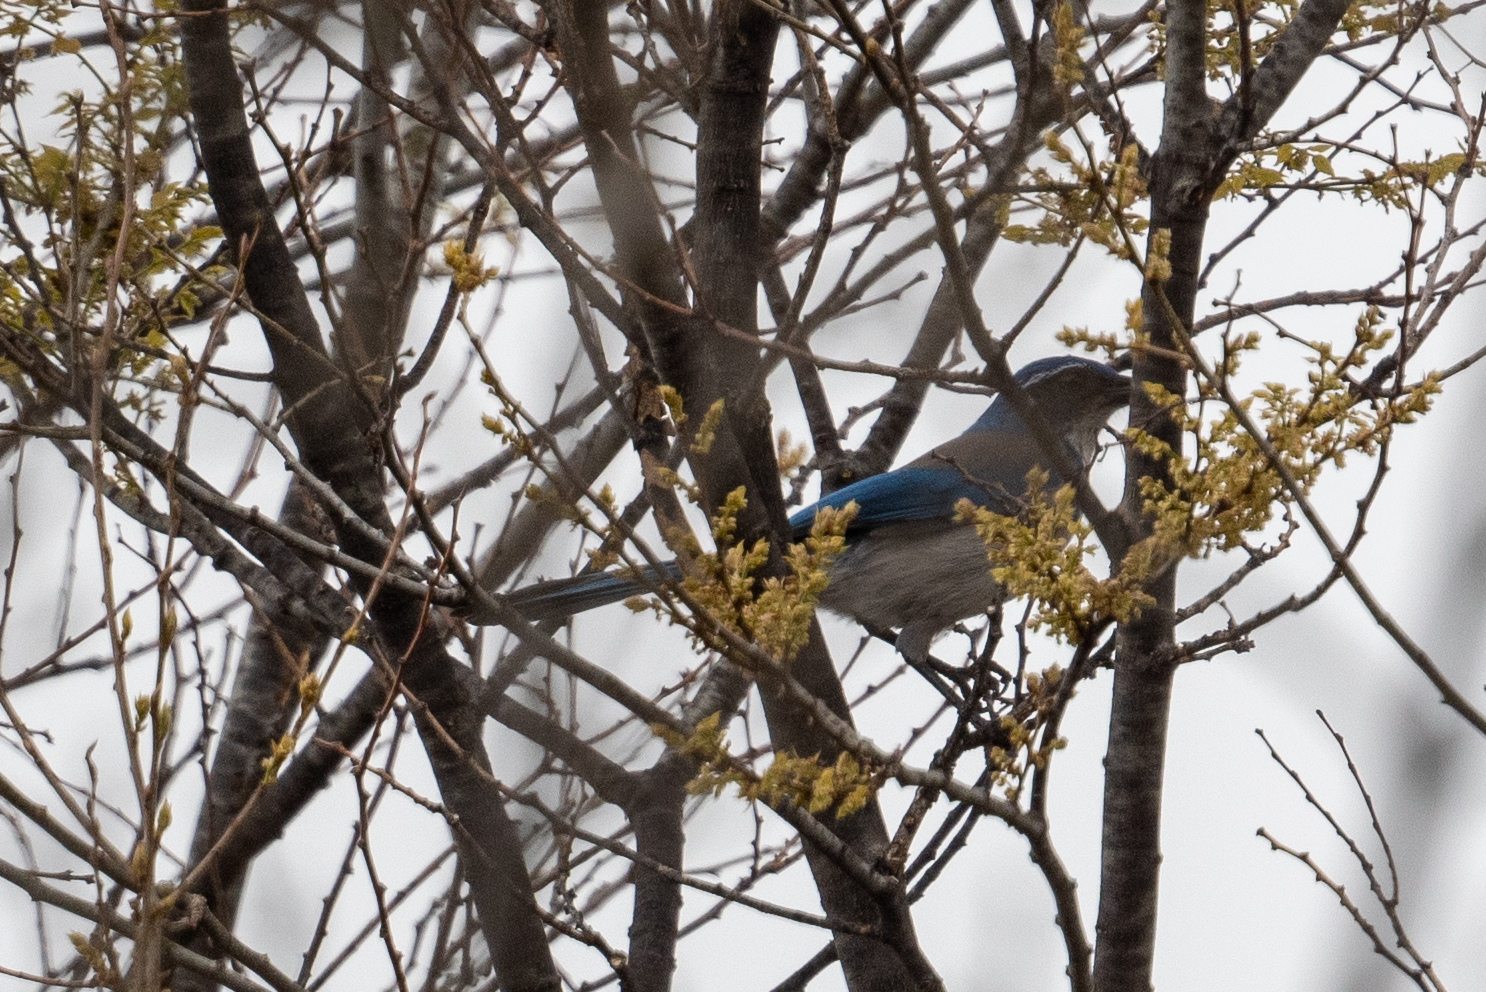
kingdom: Animalia
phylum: Chordata
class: Aves
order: Passeriformes
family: Corvidae
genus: Aphelocoma
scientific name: Aphelocoma californica
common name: California scrub-jay
